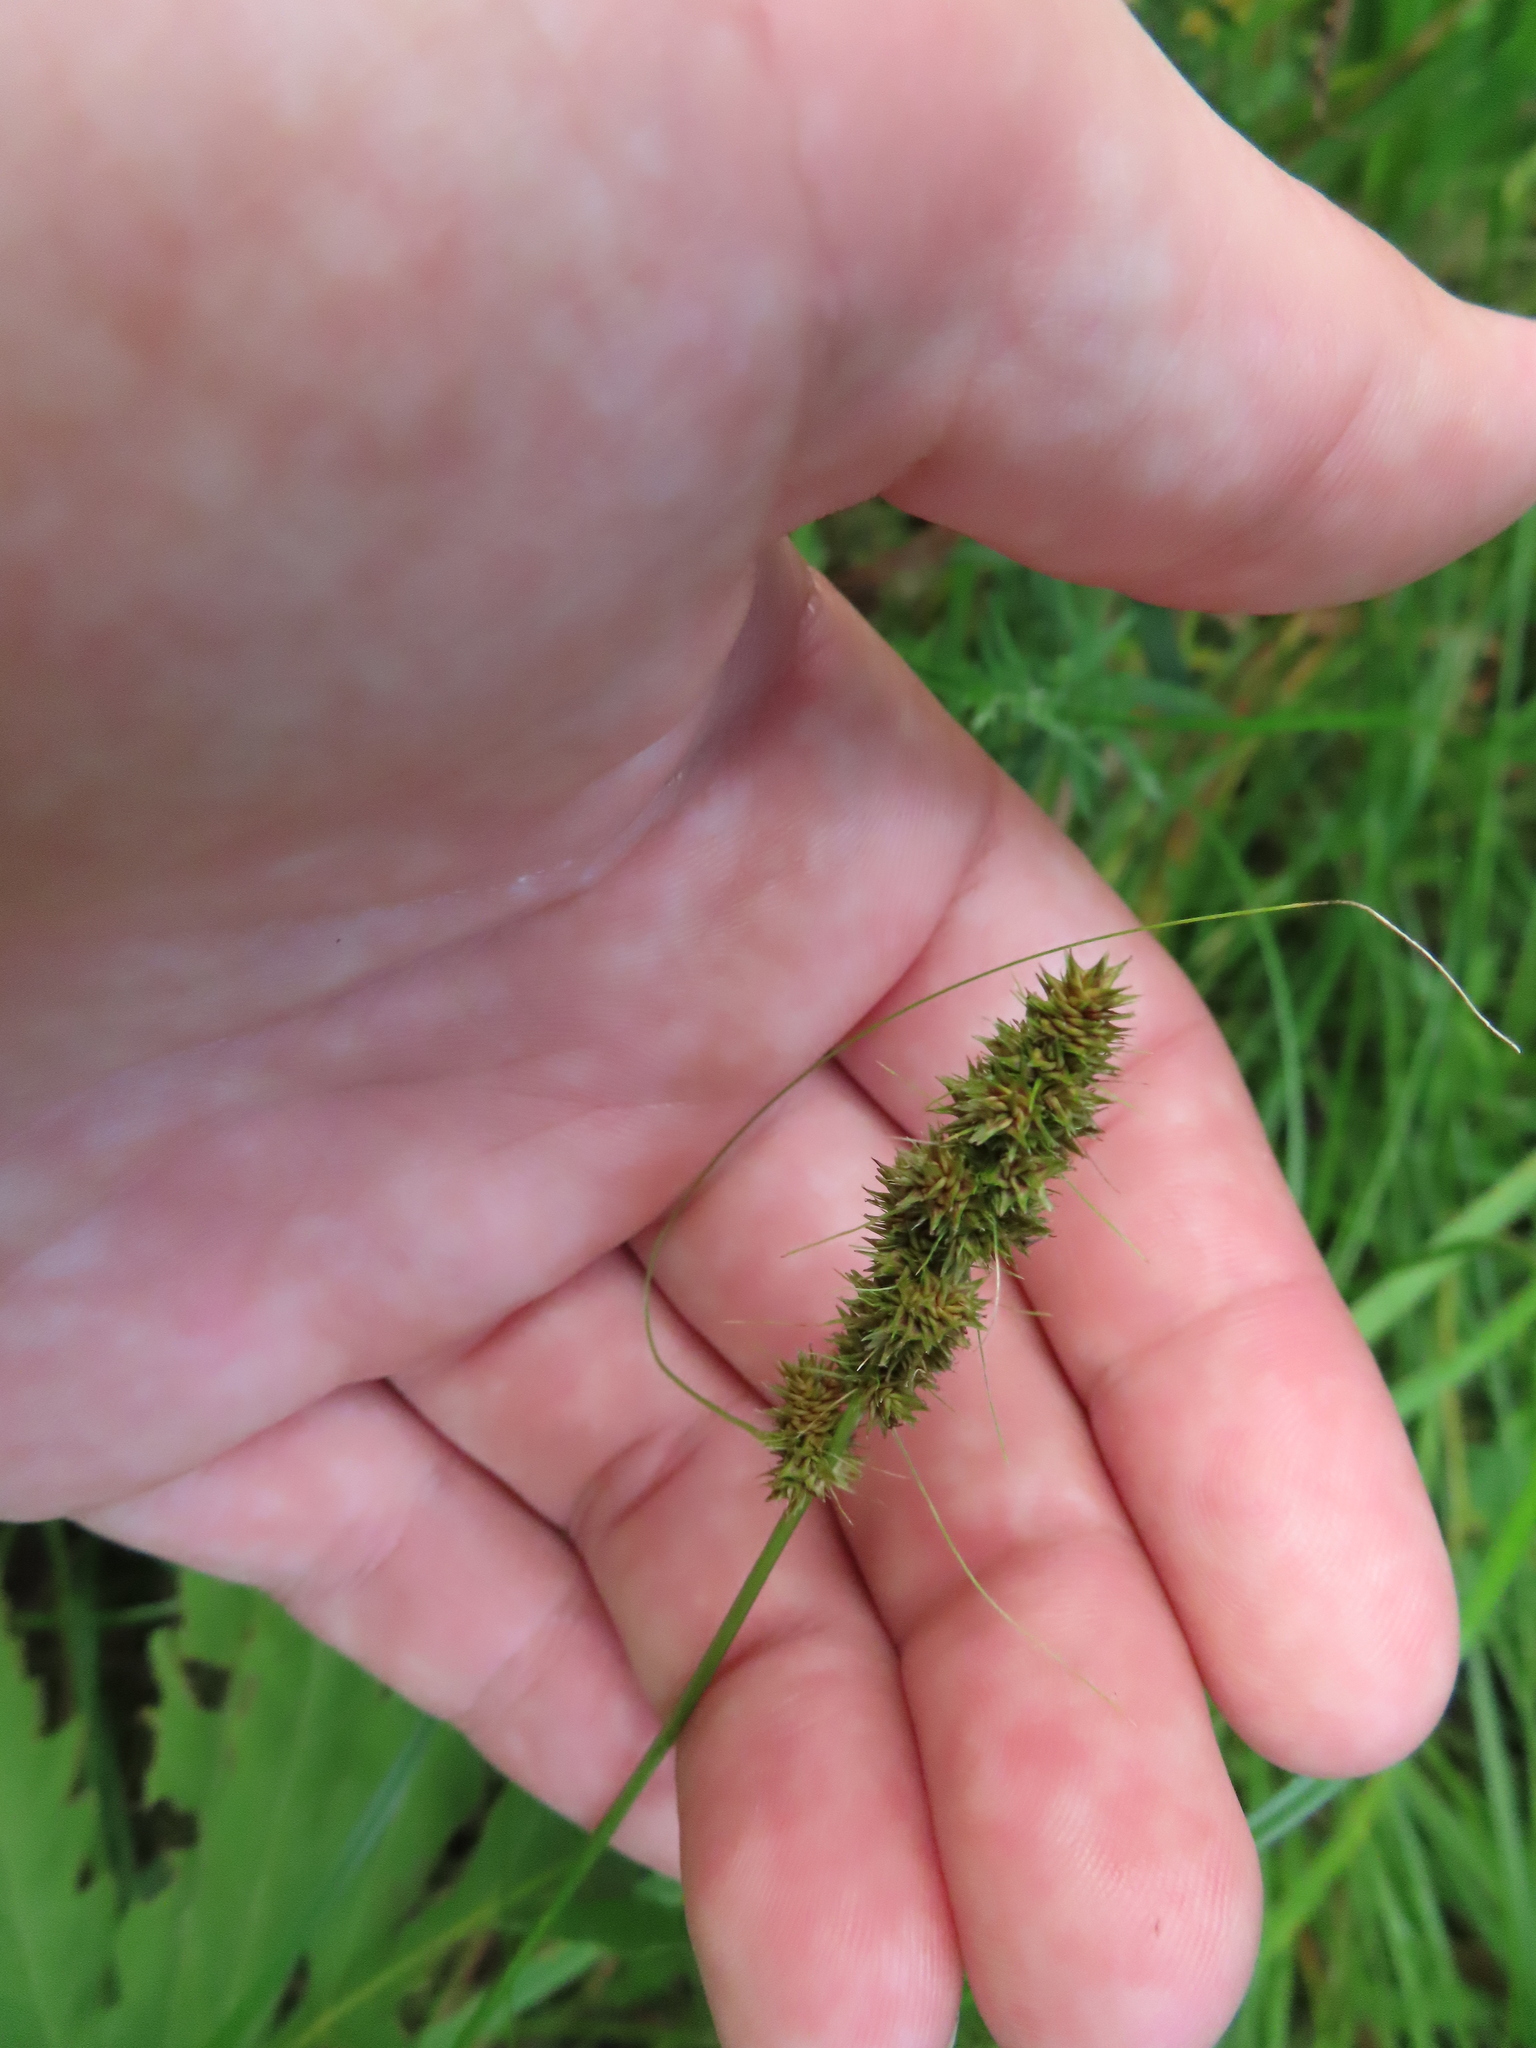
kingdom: Plantae
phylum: Tracheophyta
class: Liliopsida
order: Poales
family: Cyperaceae
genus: Carex
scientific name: Carex vulpinoidea
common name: American fox-sedge
